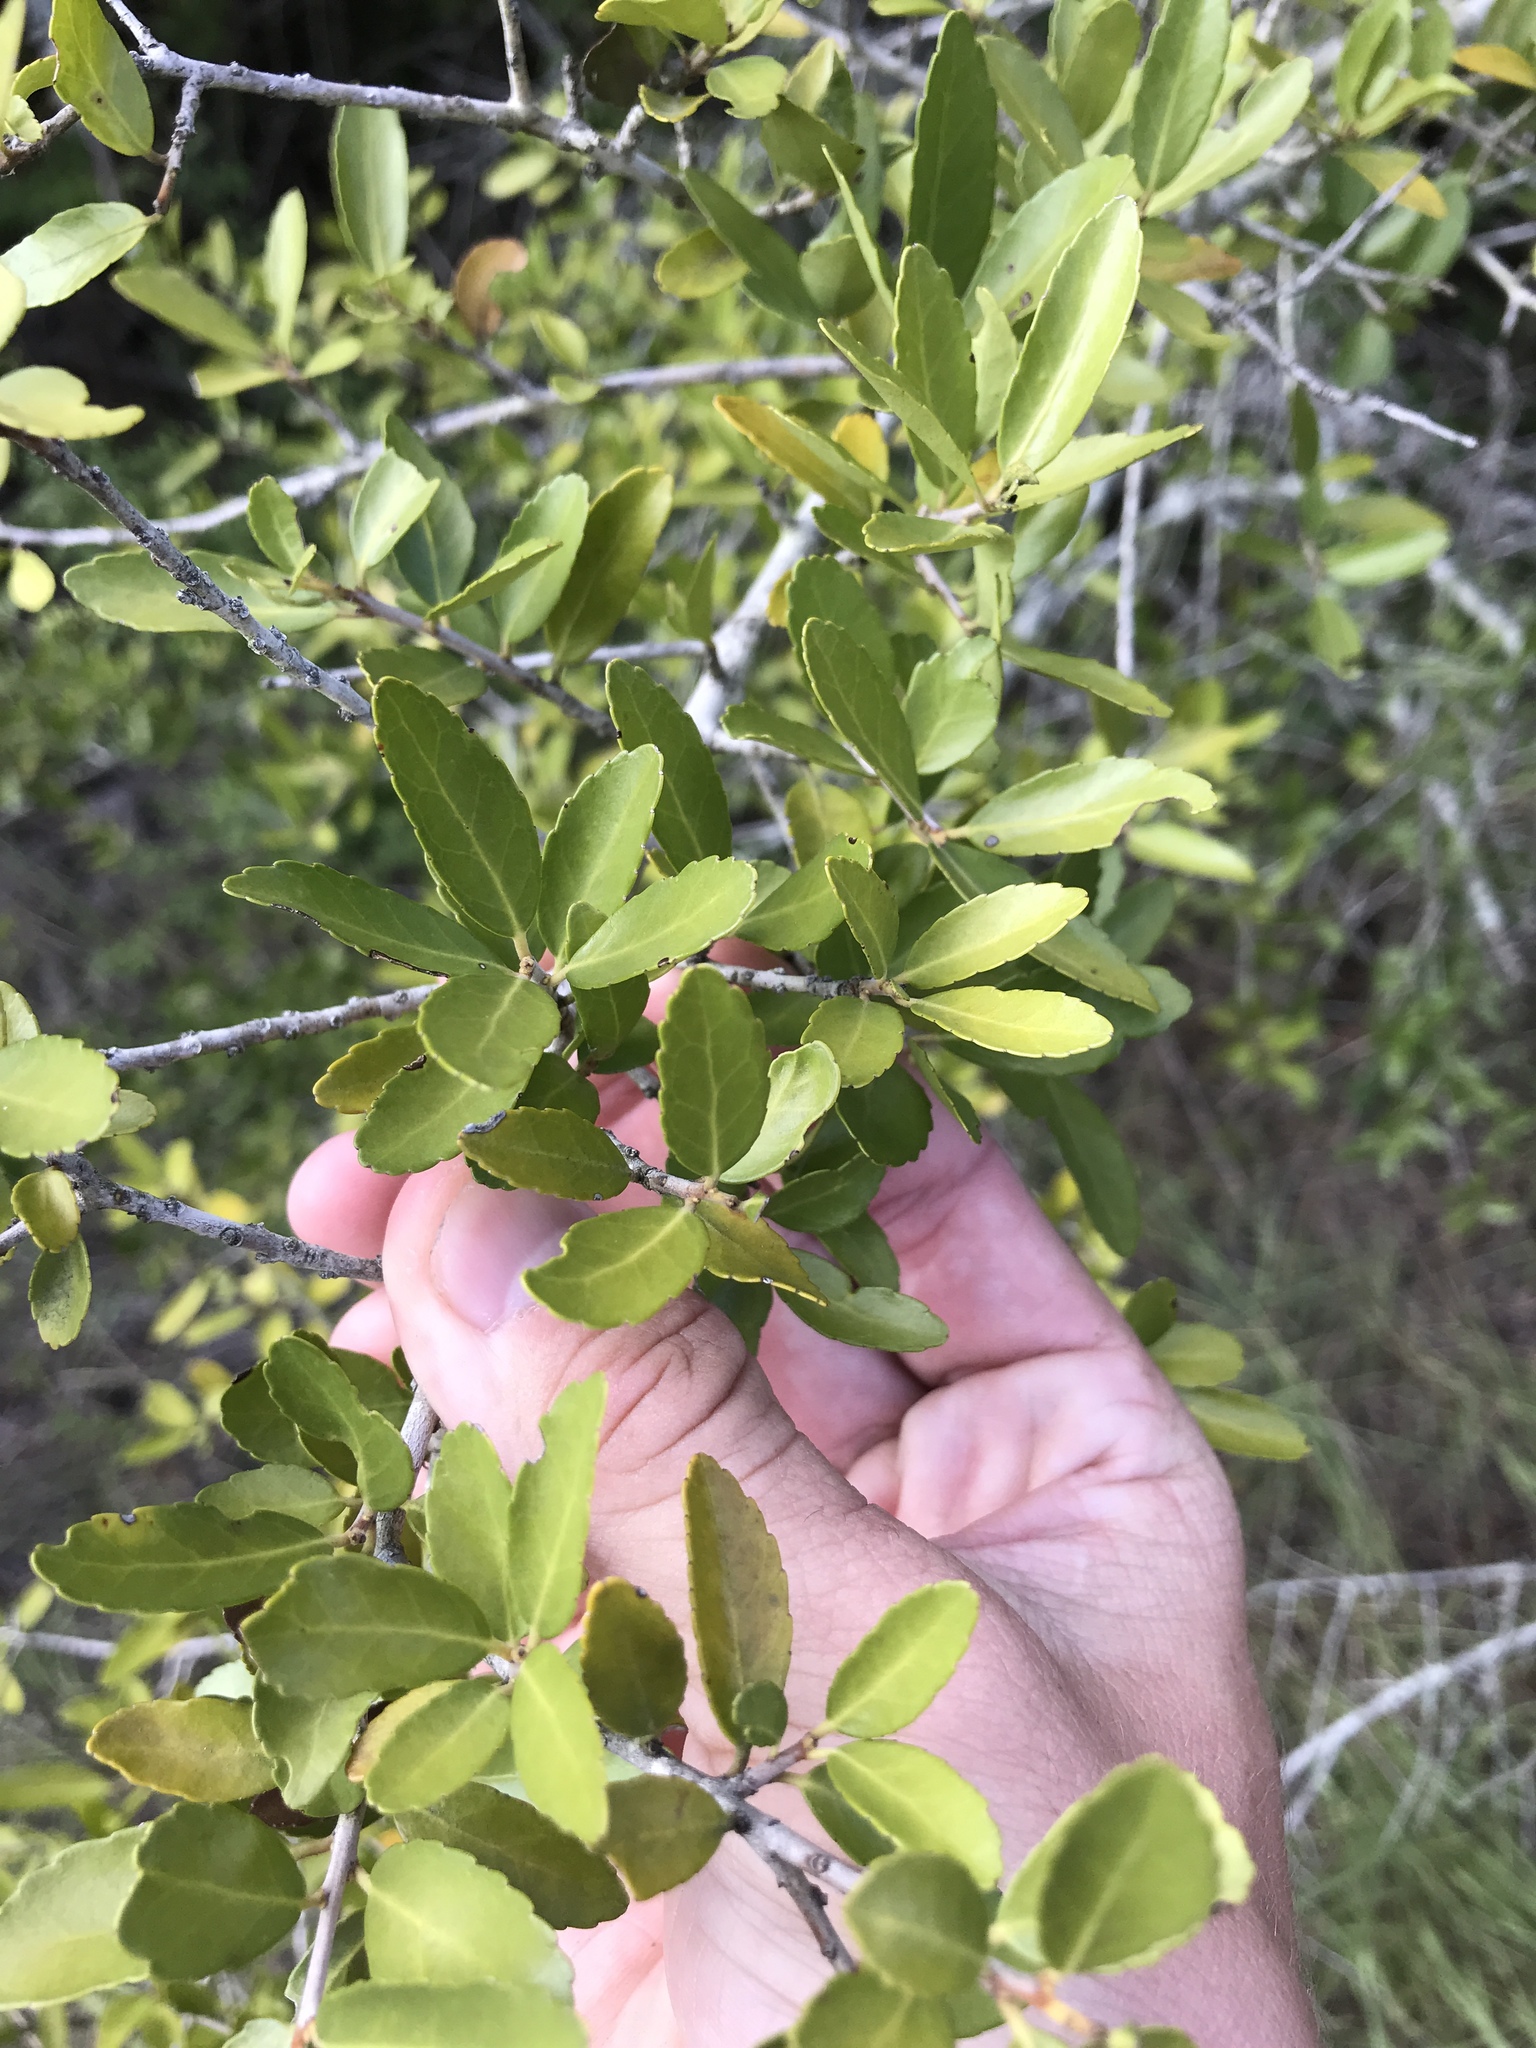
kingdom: Plantae
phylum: Tracheophyta
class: Magnoliopsida
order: Aquifoliales
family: Aquifoliaceae
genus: Ilex
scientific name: Ilex vomitoria
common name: Yaupon holly
